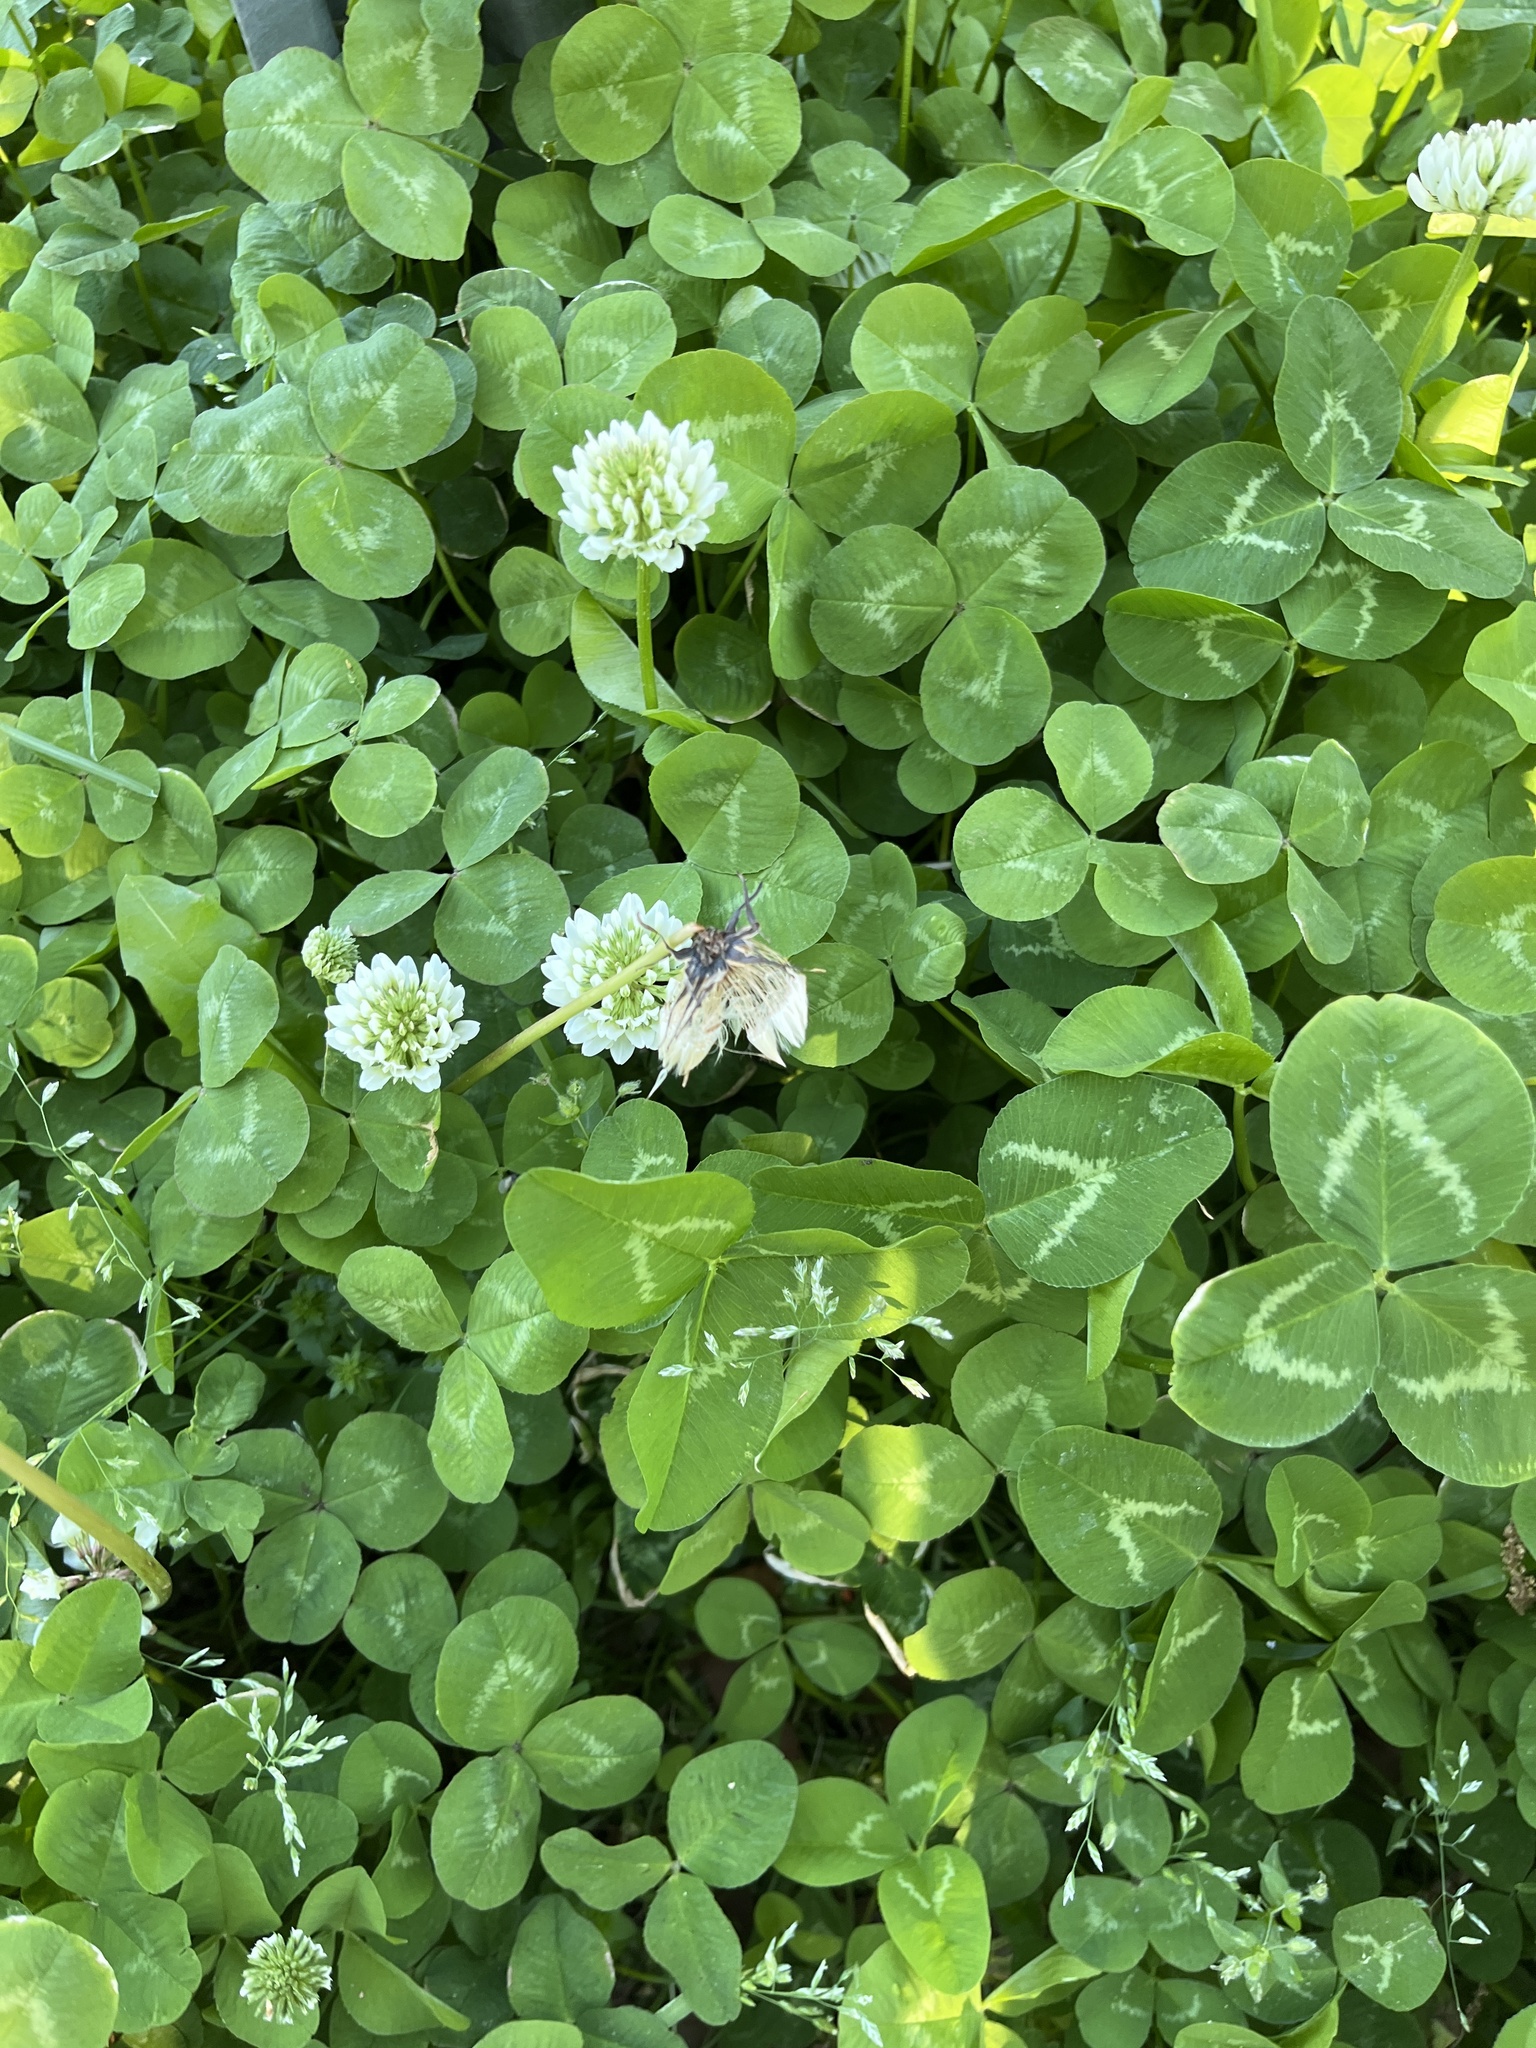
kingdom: Plantae
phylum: Tracheophyta
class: Magnoliopsida
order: Fabales
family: Fabaceae
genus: Trifolium
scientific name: Trifolium repens
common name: White clover
